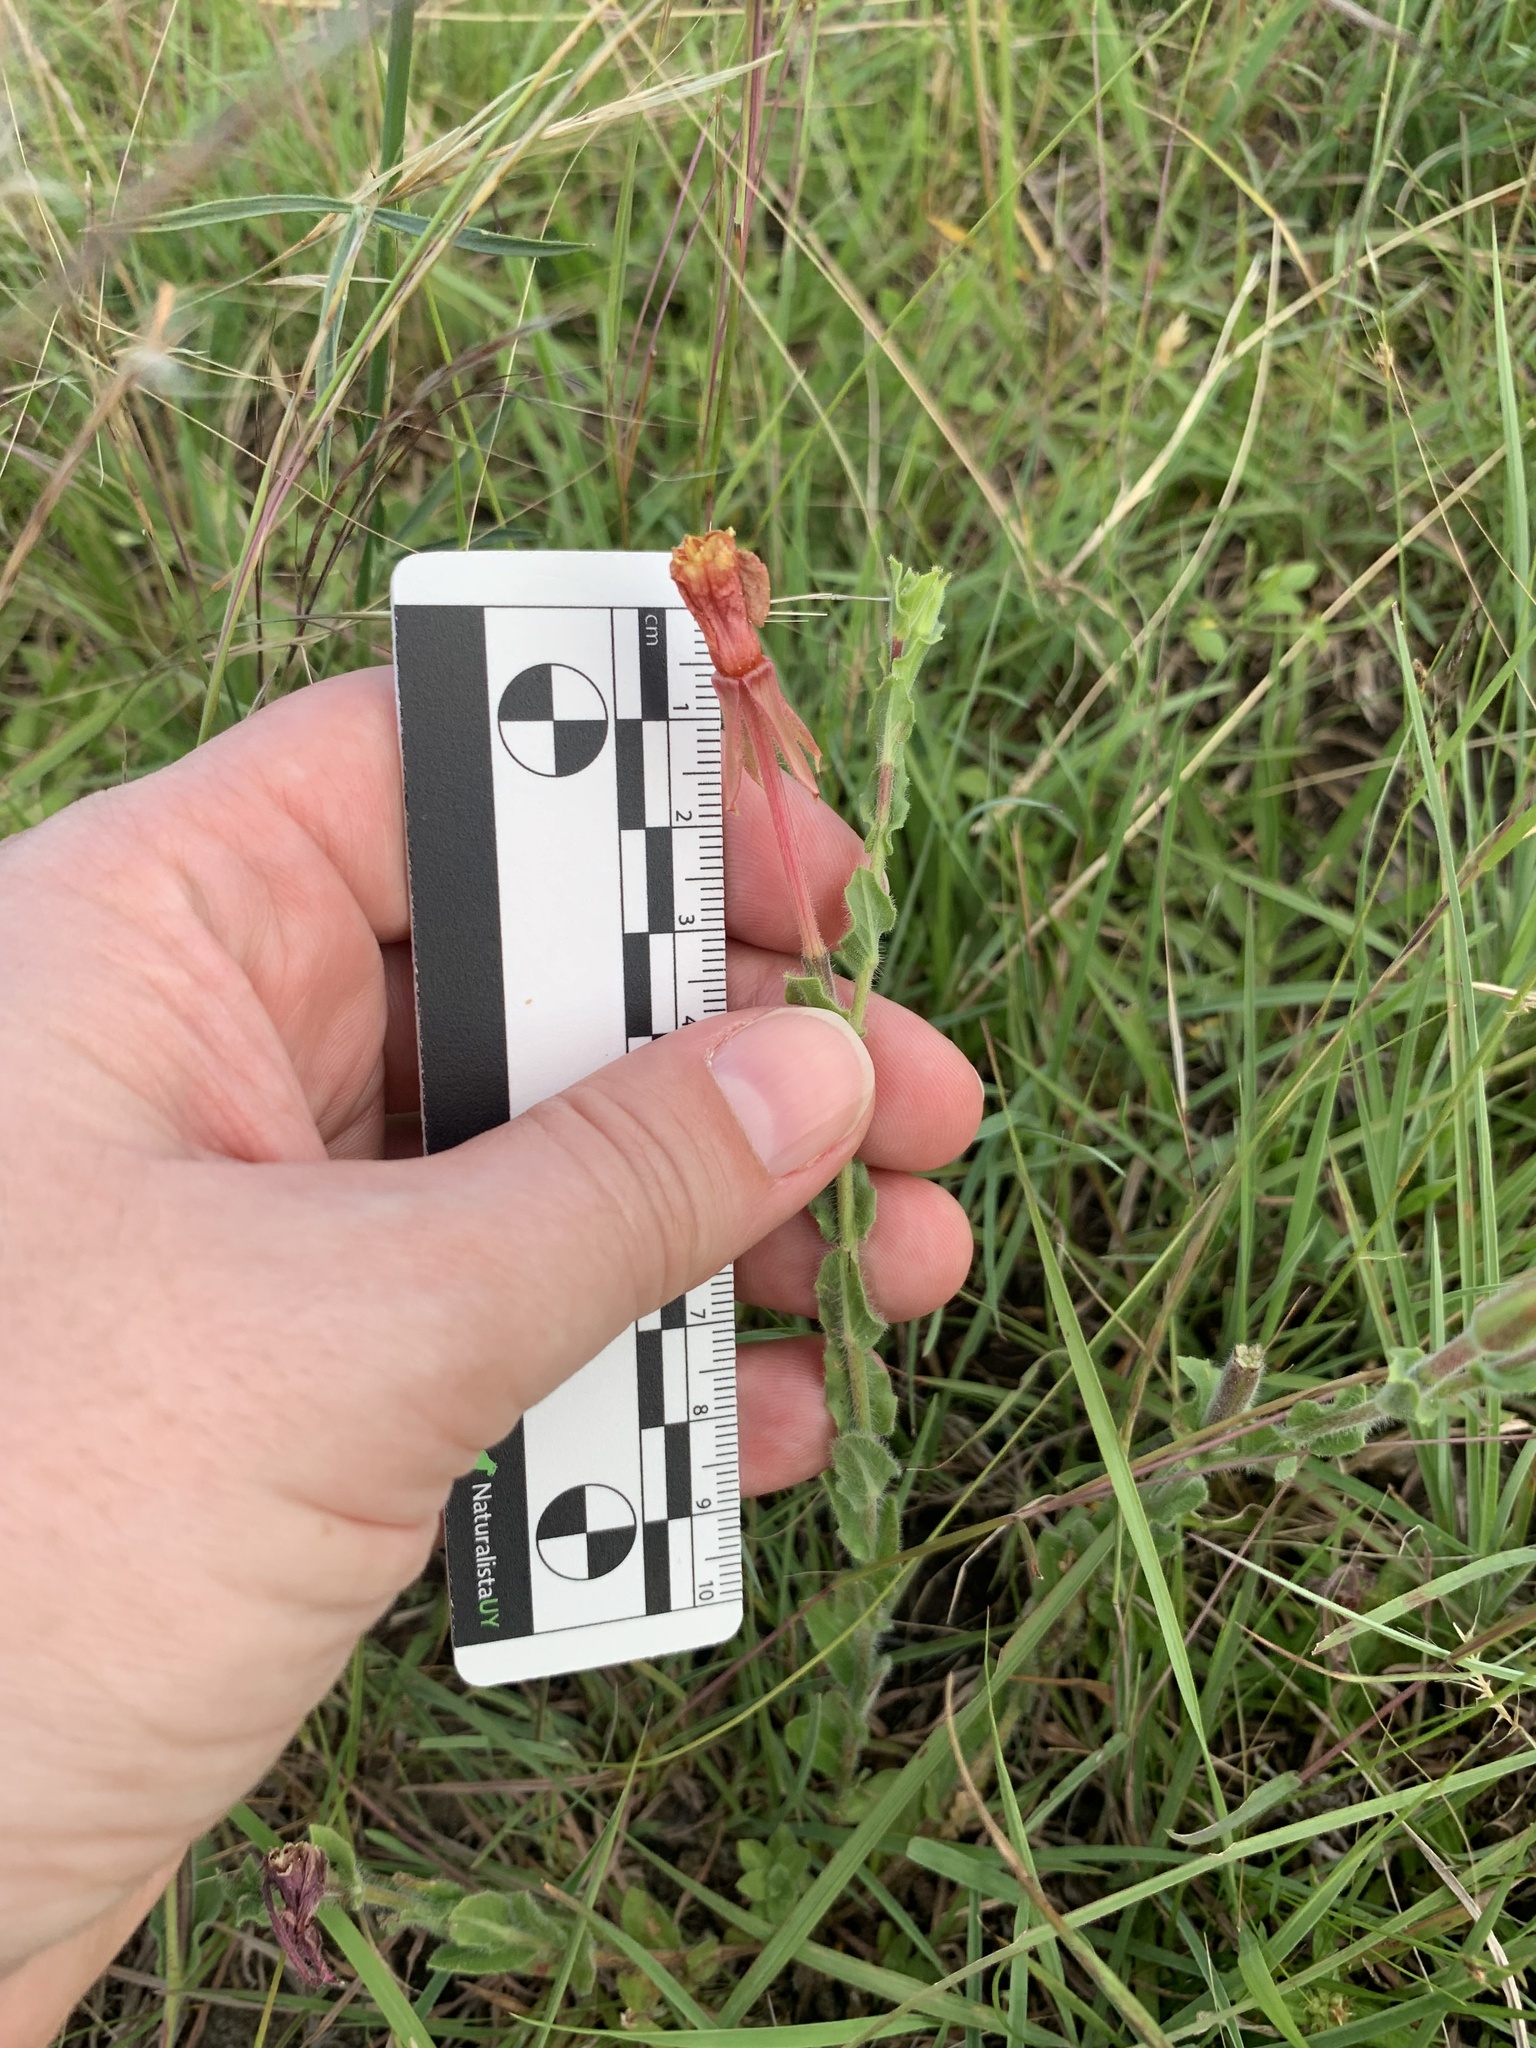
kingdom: Plantae
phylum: Tracheophyta
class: Magnoliopsida
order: Myrtales
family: Onagraceae
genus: Oenothera
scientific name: Oenothera parodiana
